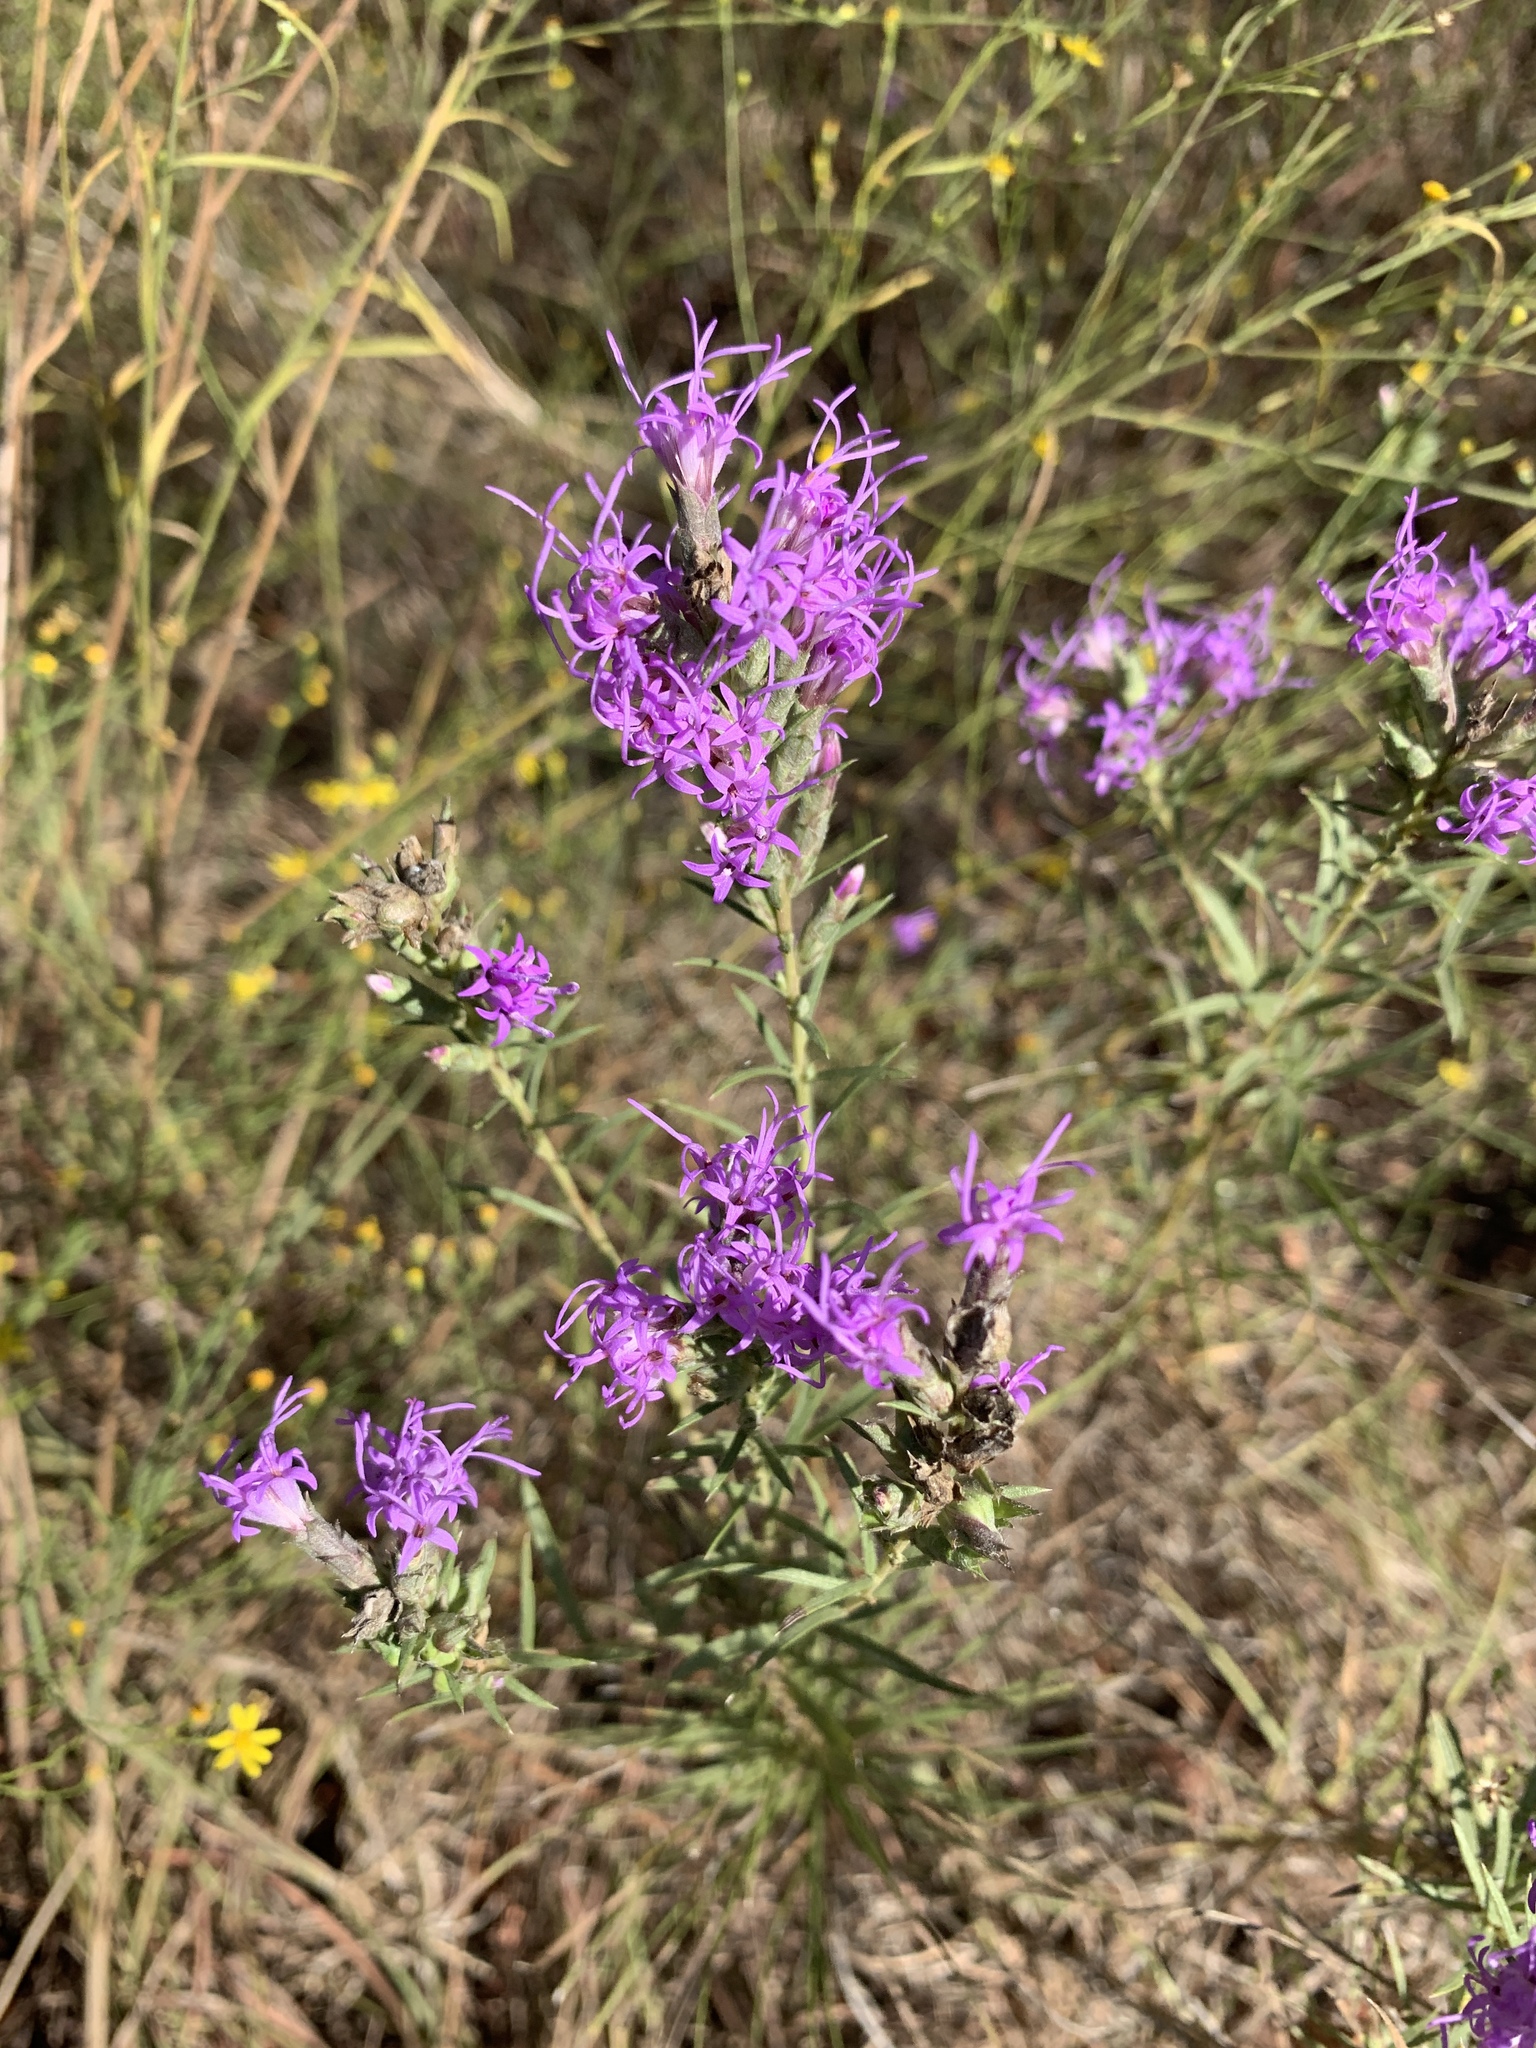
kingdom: Plantae
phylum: Tracheophyta
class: Magnoliopsida
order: Asterales
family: Asteraceae
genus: Liatris
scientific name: Liatris punctata
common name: Dotted gayfeather
